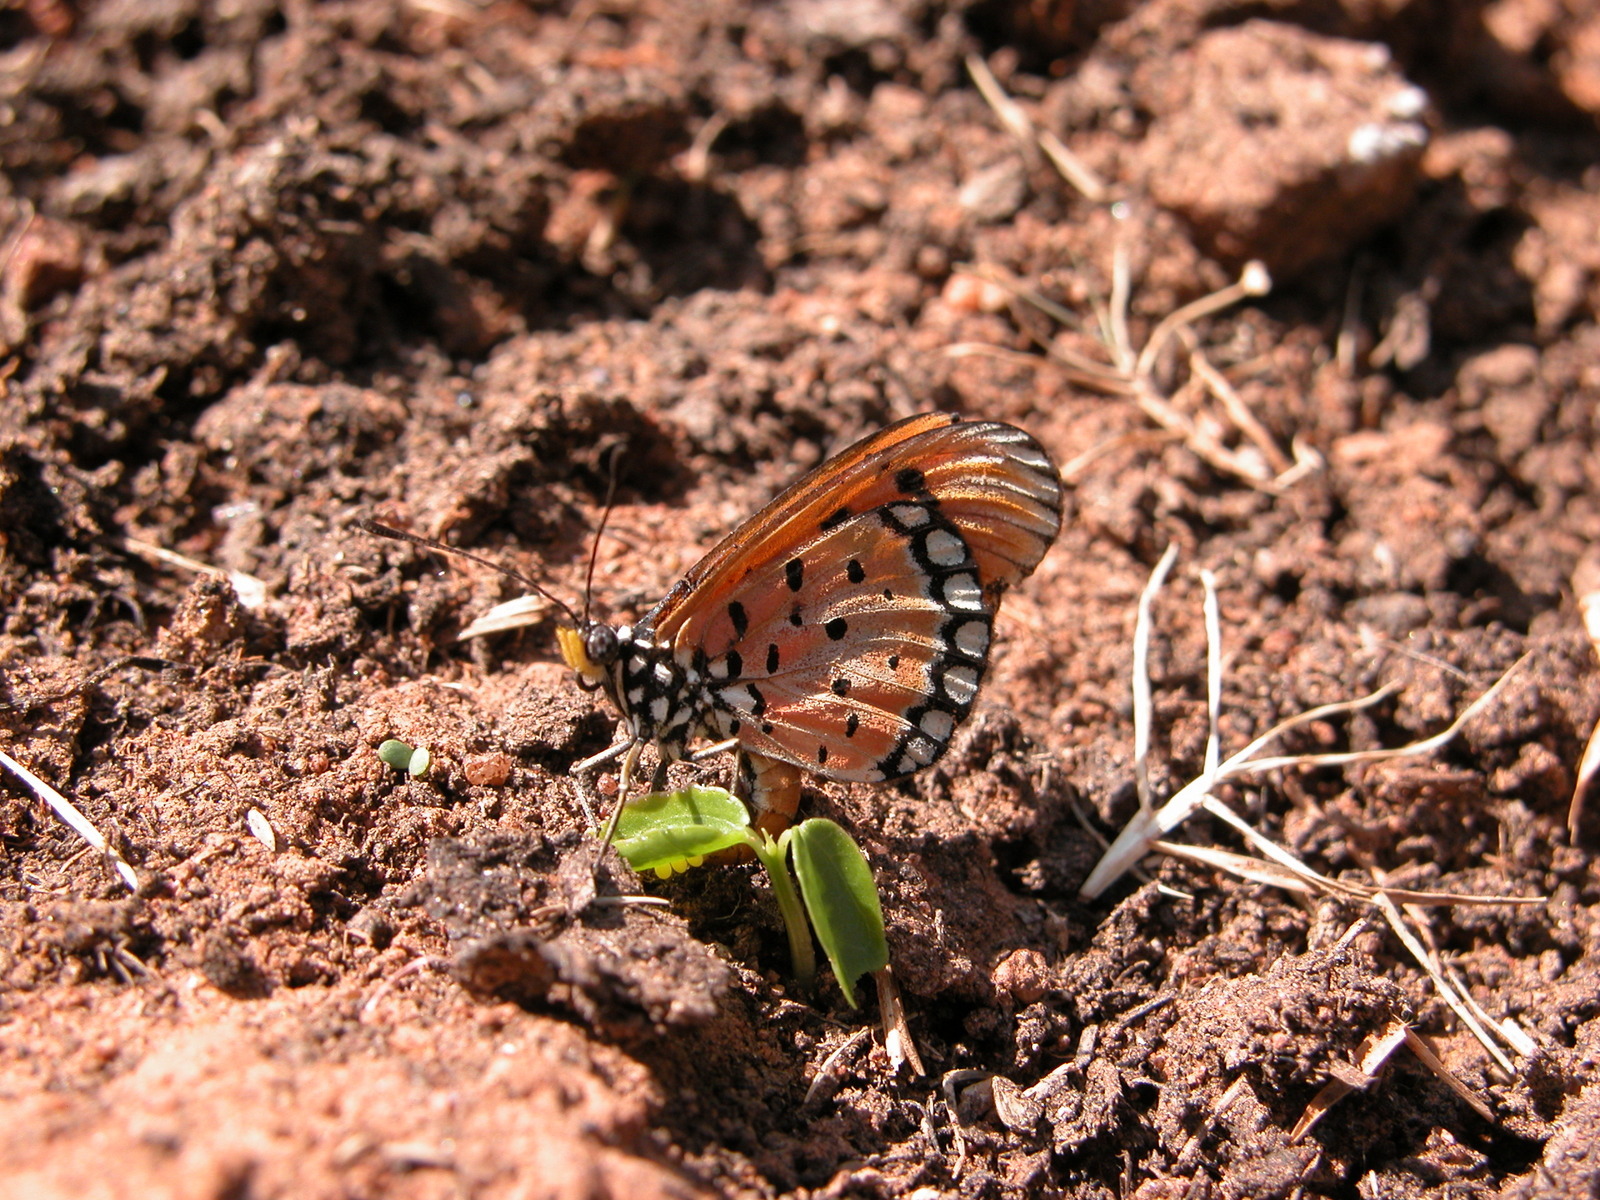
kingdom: Animalia
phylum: Arthropoda
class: Insecta
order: Lepidoptera
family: Nymphalidae
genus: Acraea
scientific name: Acraea terpsicore
